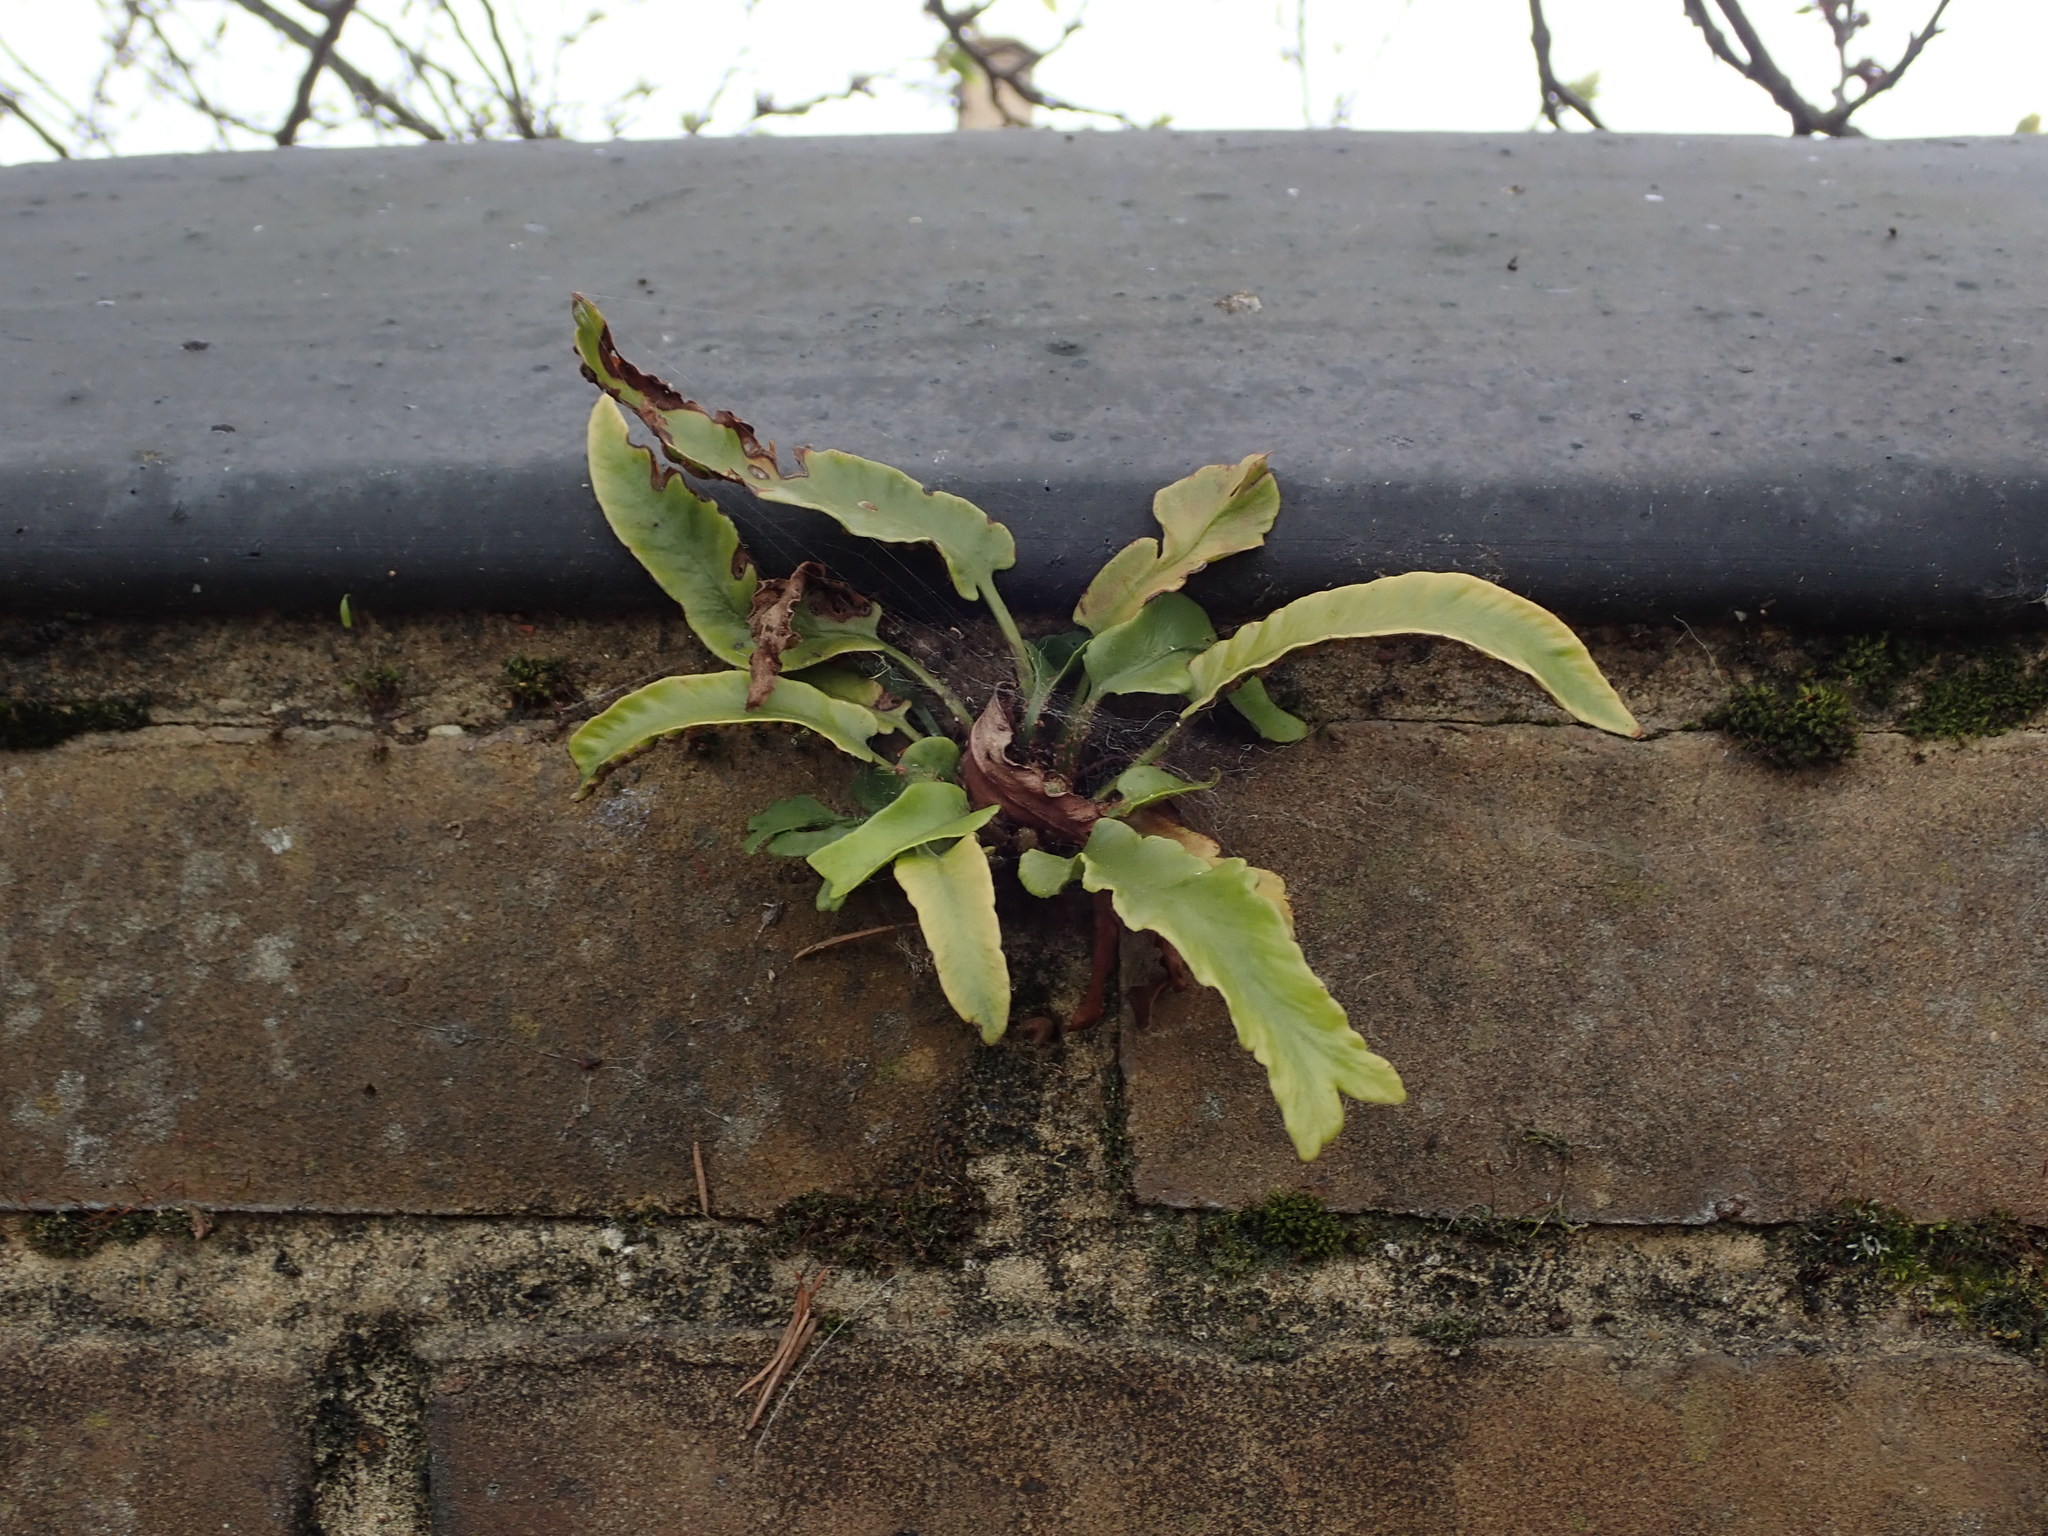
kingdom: Plantae
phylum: Tracheophyta
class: Polypodiopsida
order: Polypodiales
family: Aspleniaceae
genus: Asplenium
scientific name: Asplenium scolopendrium
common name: Hart's-tongue fern
